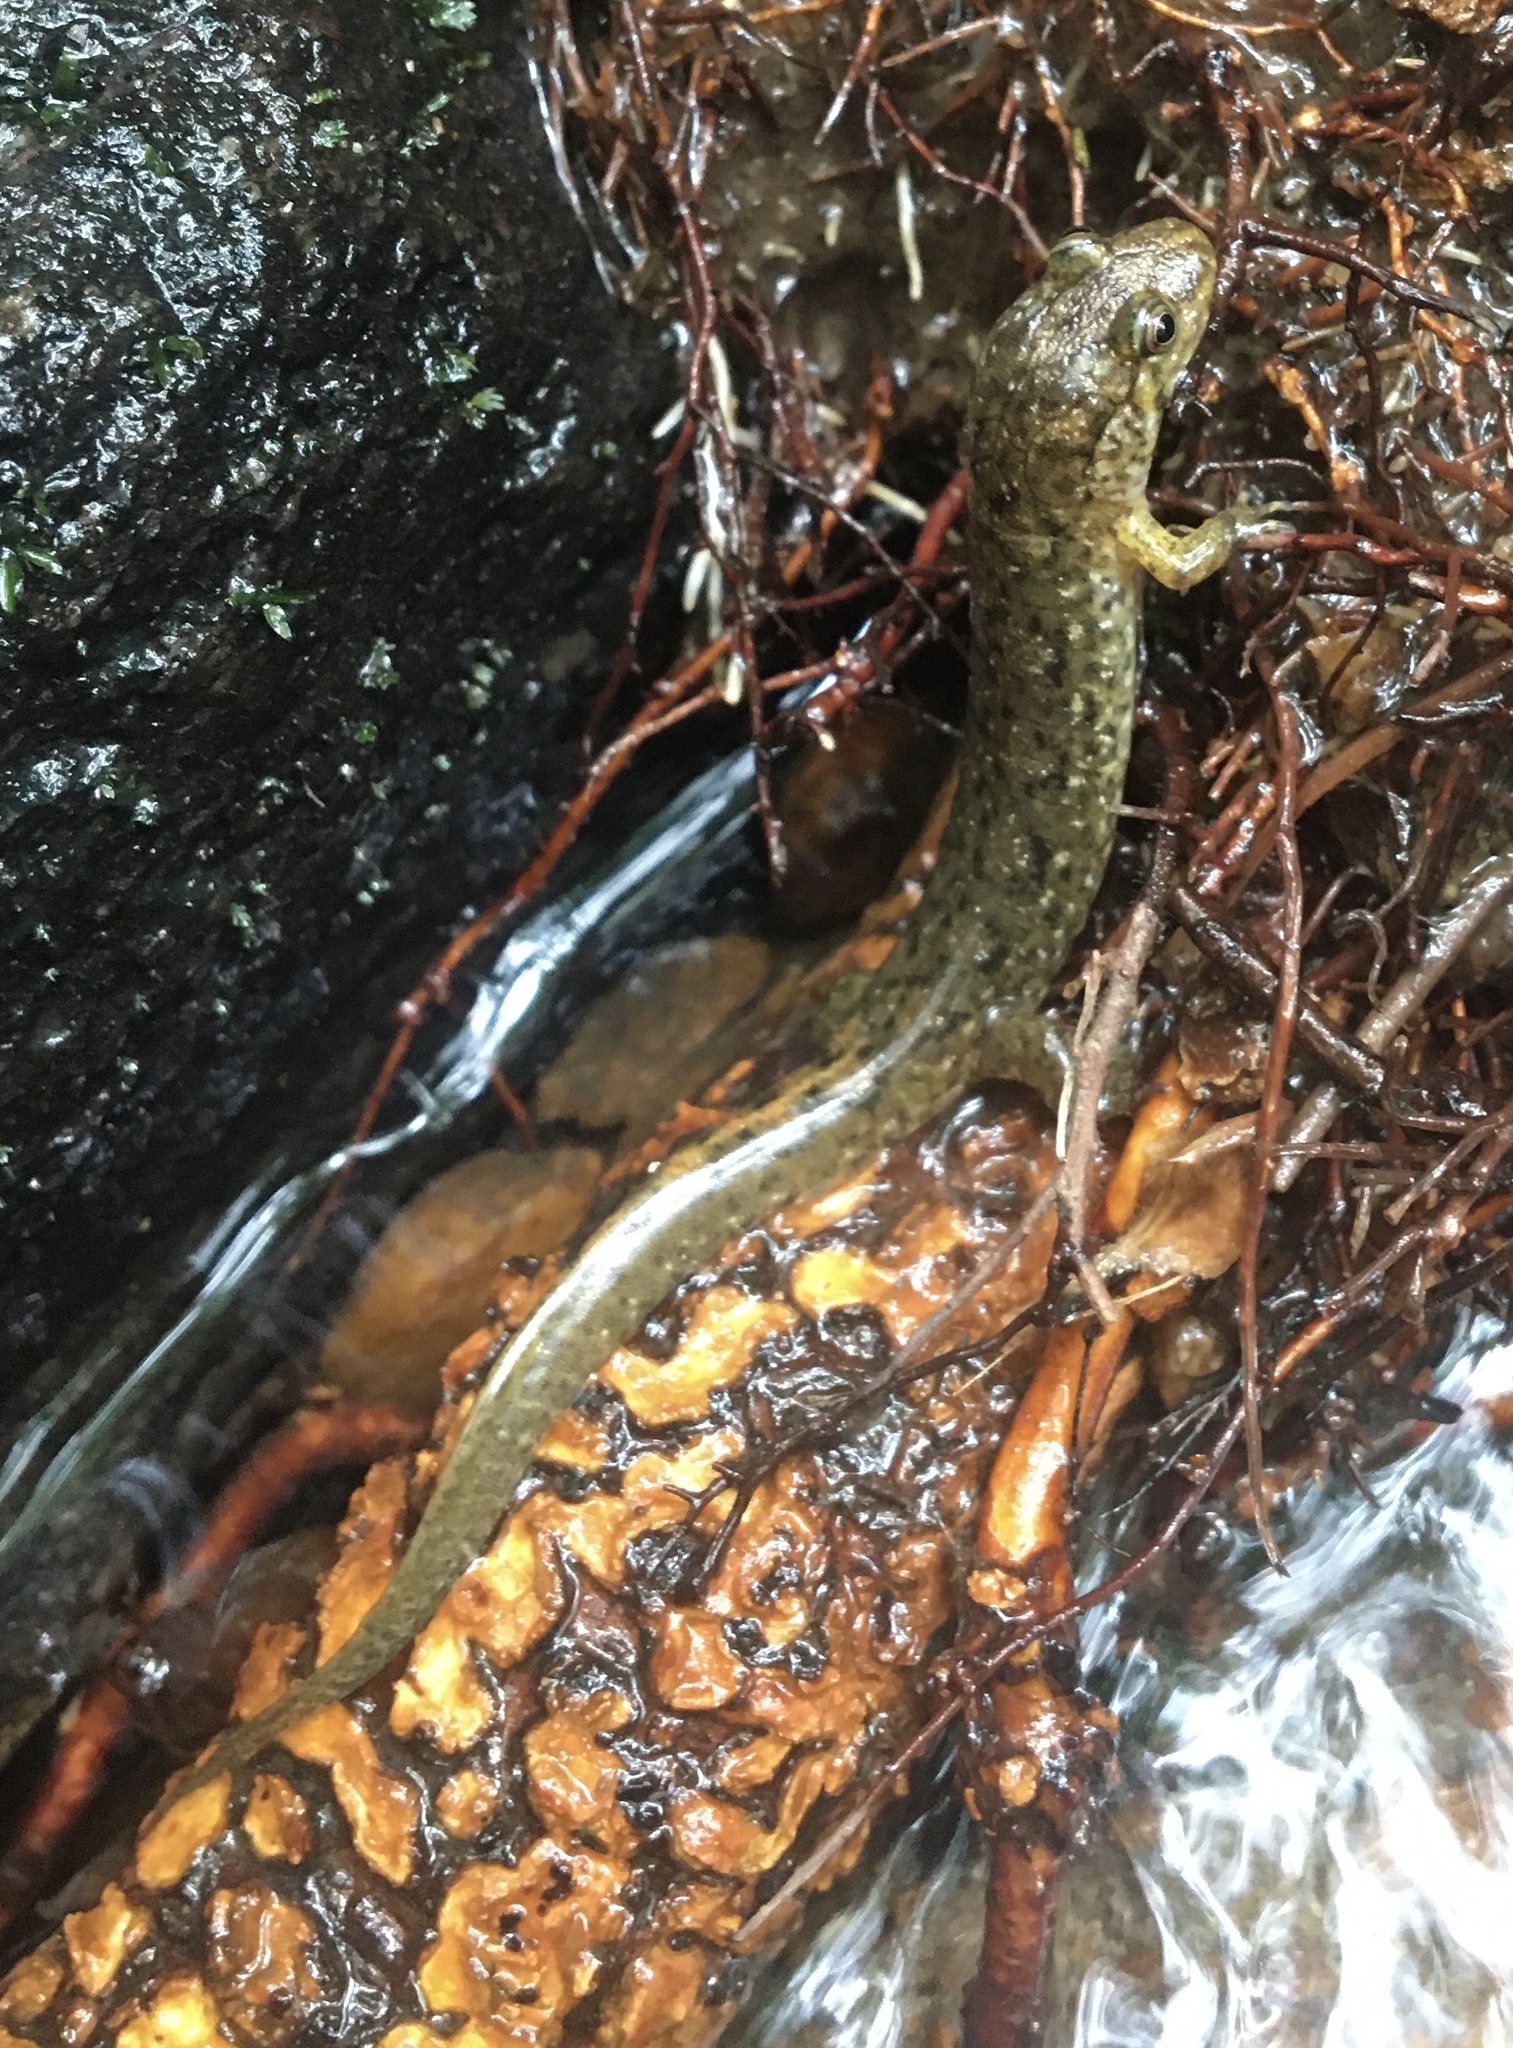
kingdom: Animalia
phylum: Chordata
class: Amphibia
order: Caudata
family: Plethodontidae
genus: Desmognathus
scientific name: Desmognathus monticola
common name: Seal salamander
